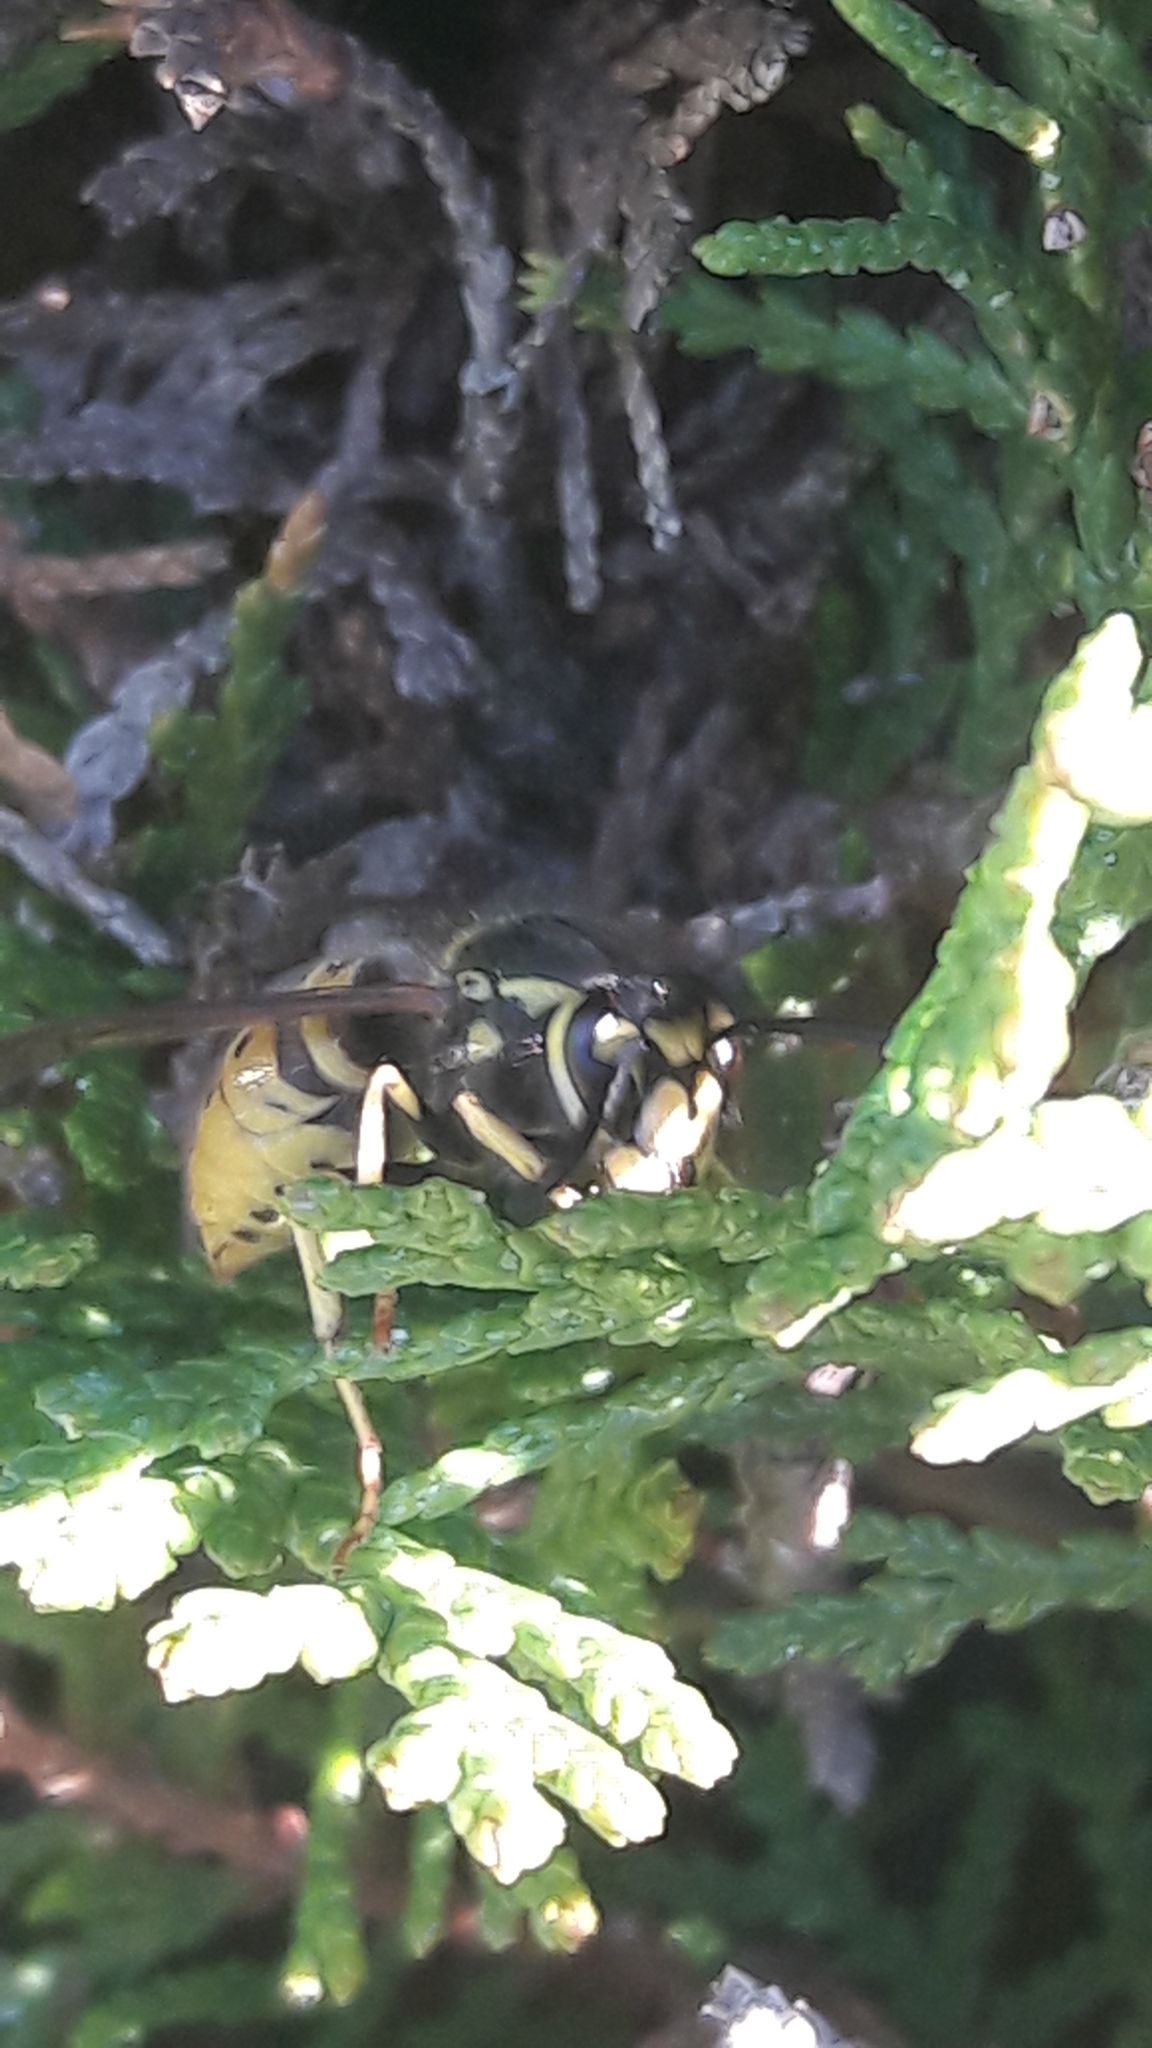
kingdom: Animalia
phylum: Arthropoda
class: Insecta
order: Hymenoptera
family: Vespidae
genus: Vespula
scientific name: Vespula germanica
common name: German wasp
